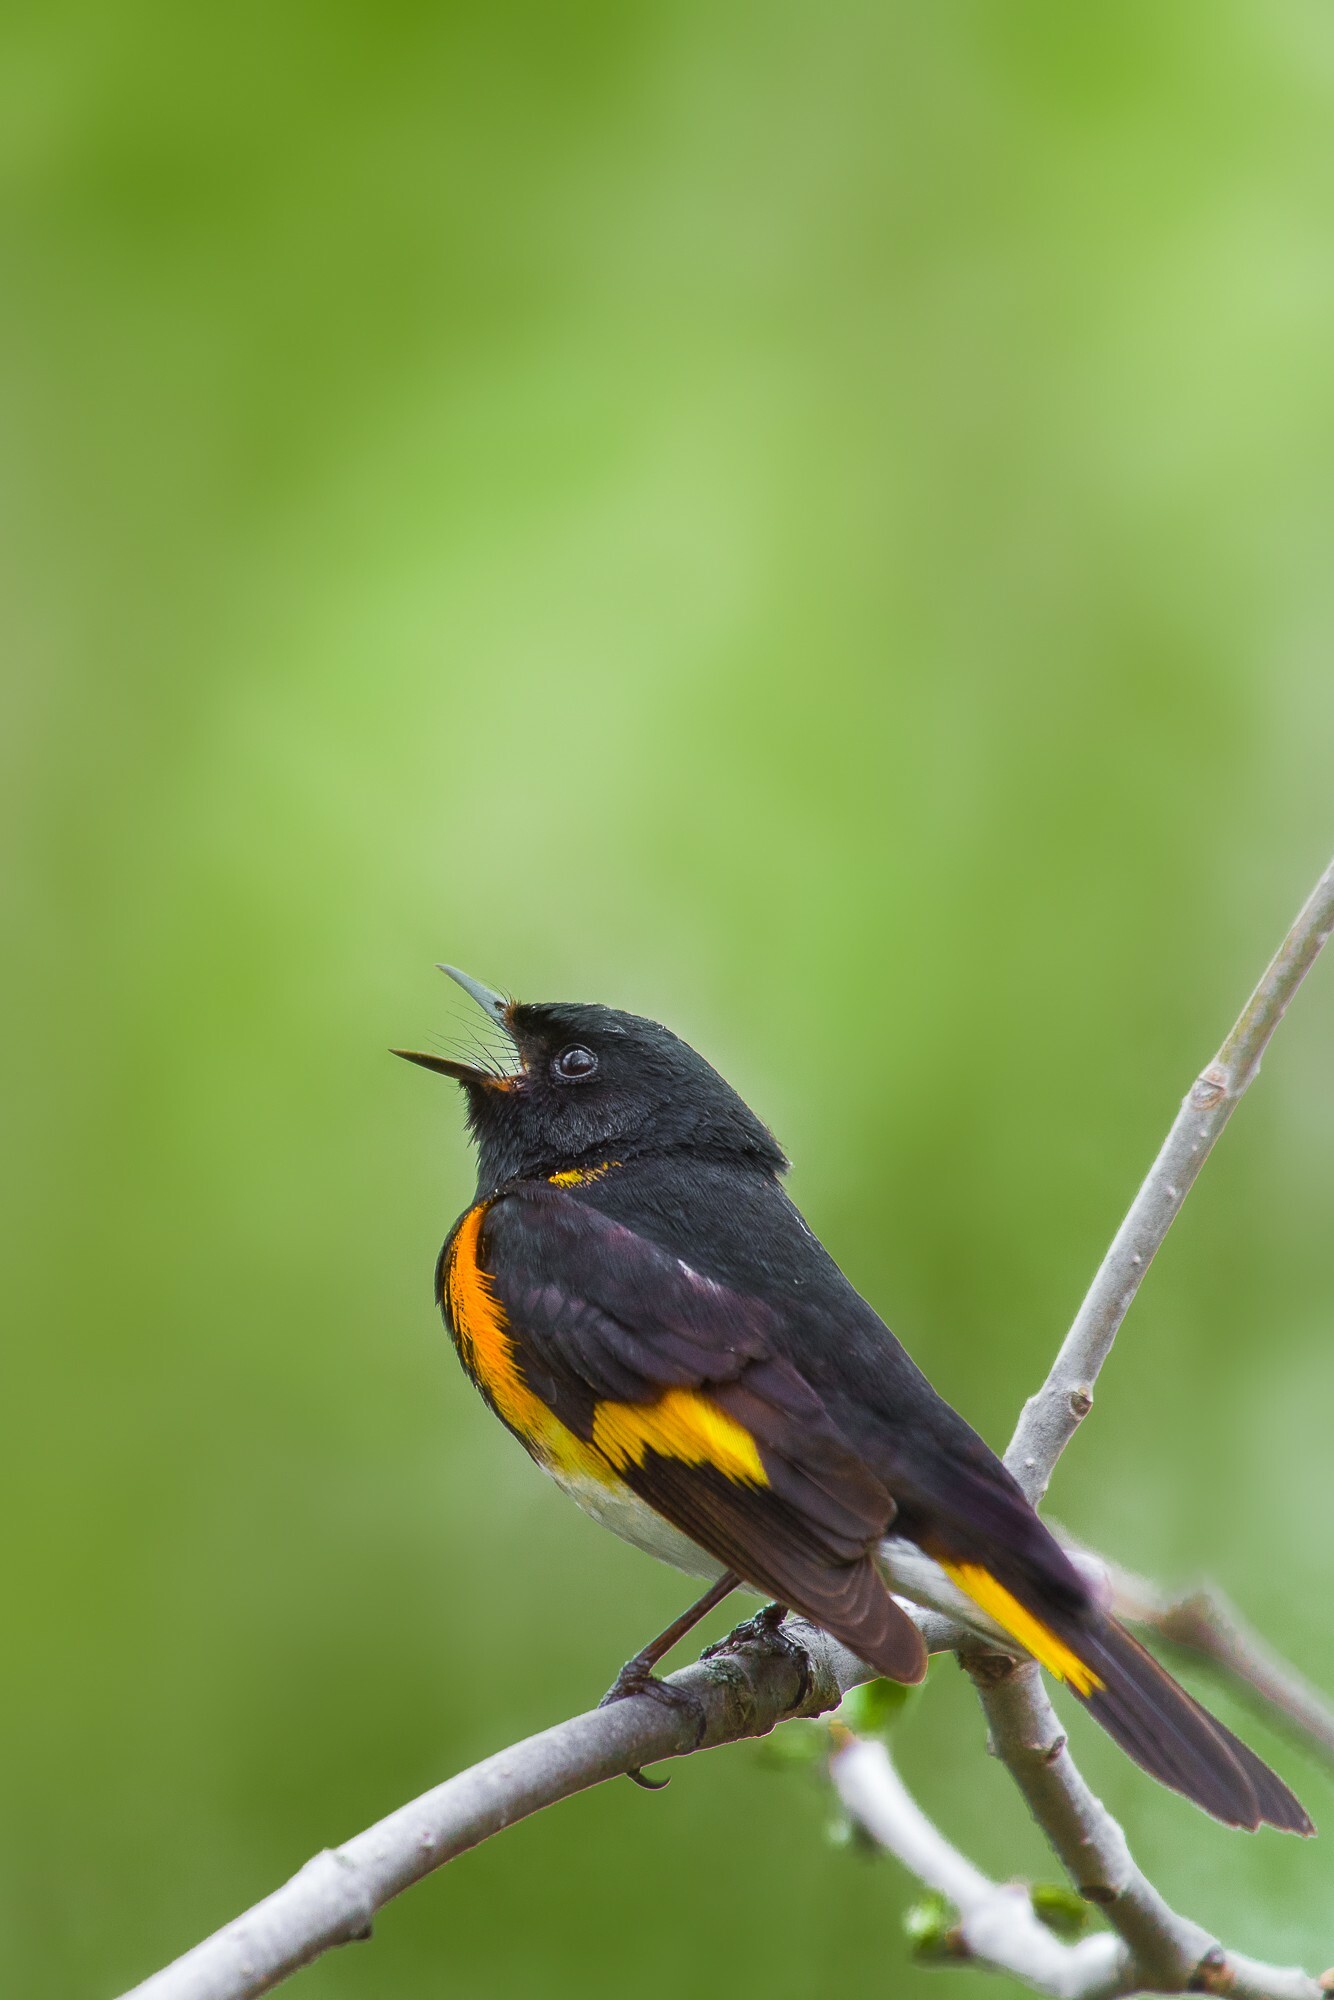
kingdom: Animalia
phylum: Chordata
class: Aves
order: Passeriformes
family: Parulidae
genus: Setophaga
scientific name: Setophaga ruticilla
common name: American redstart
